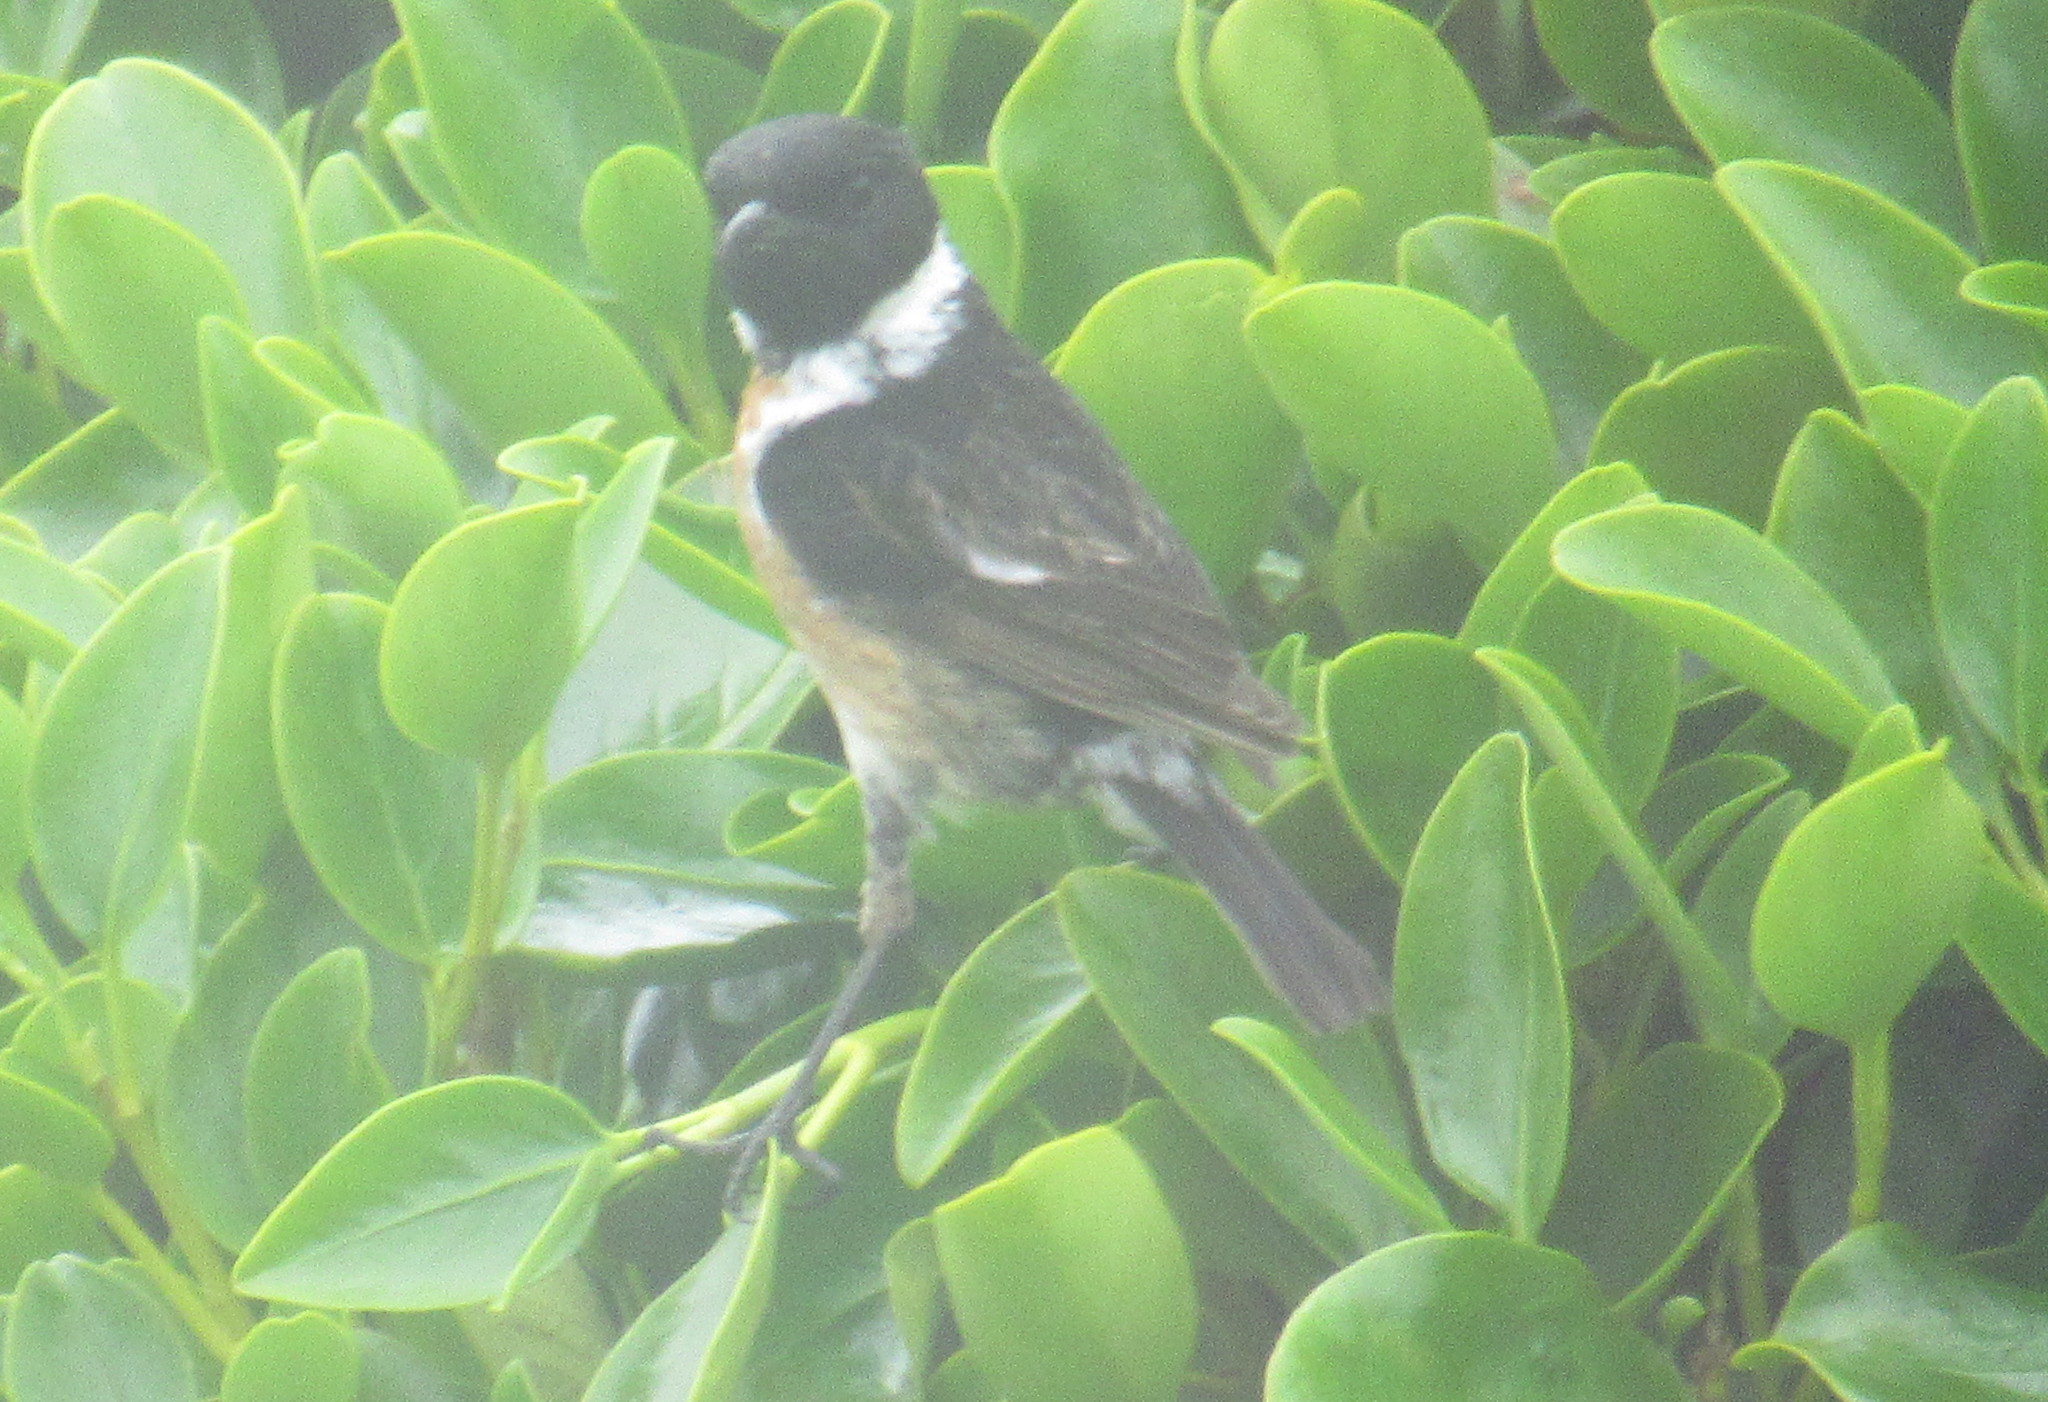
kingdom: Animalia
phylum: Chordata
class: Aves
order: Passeriformes
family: Muscicapidae
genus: Saxicola
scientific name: Saxicola rubicola
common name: European stonechat
